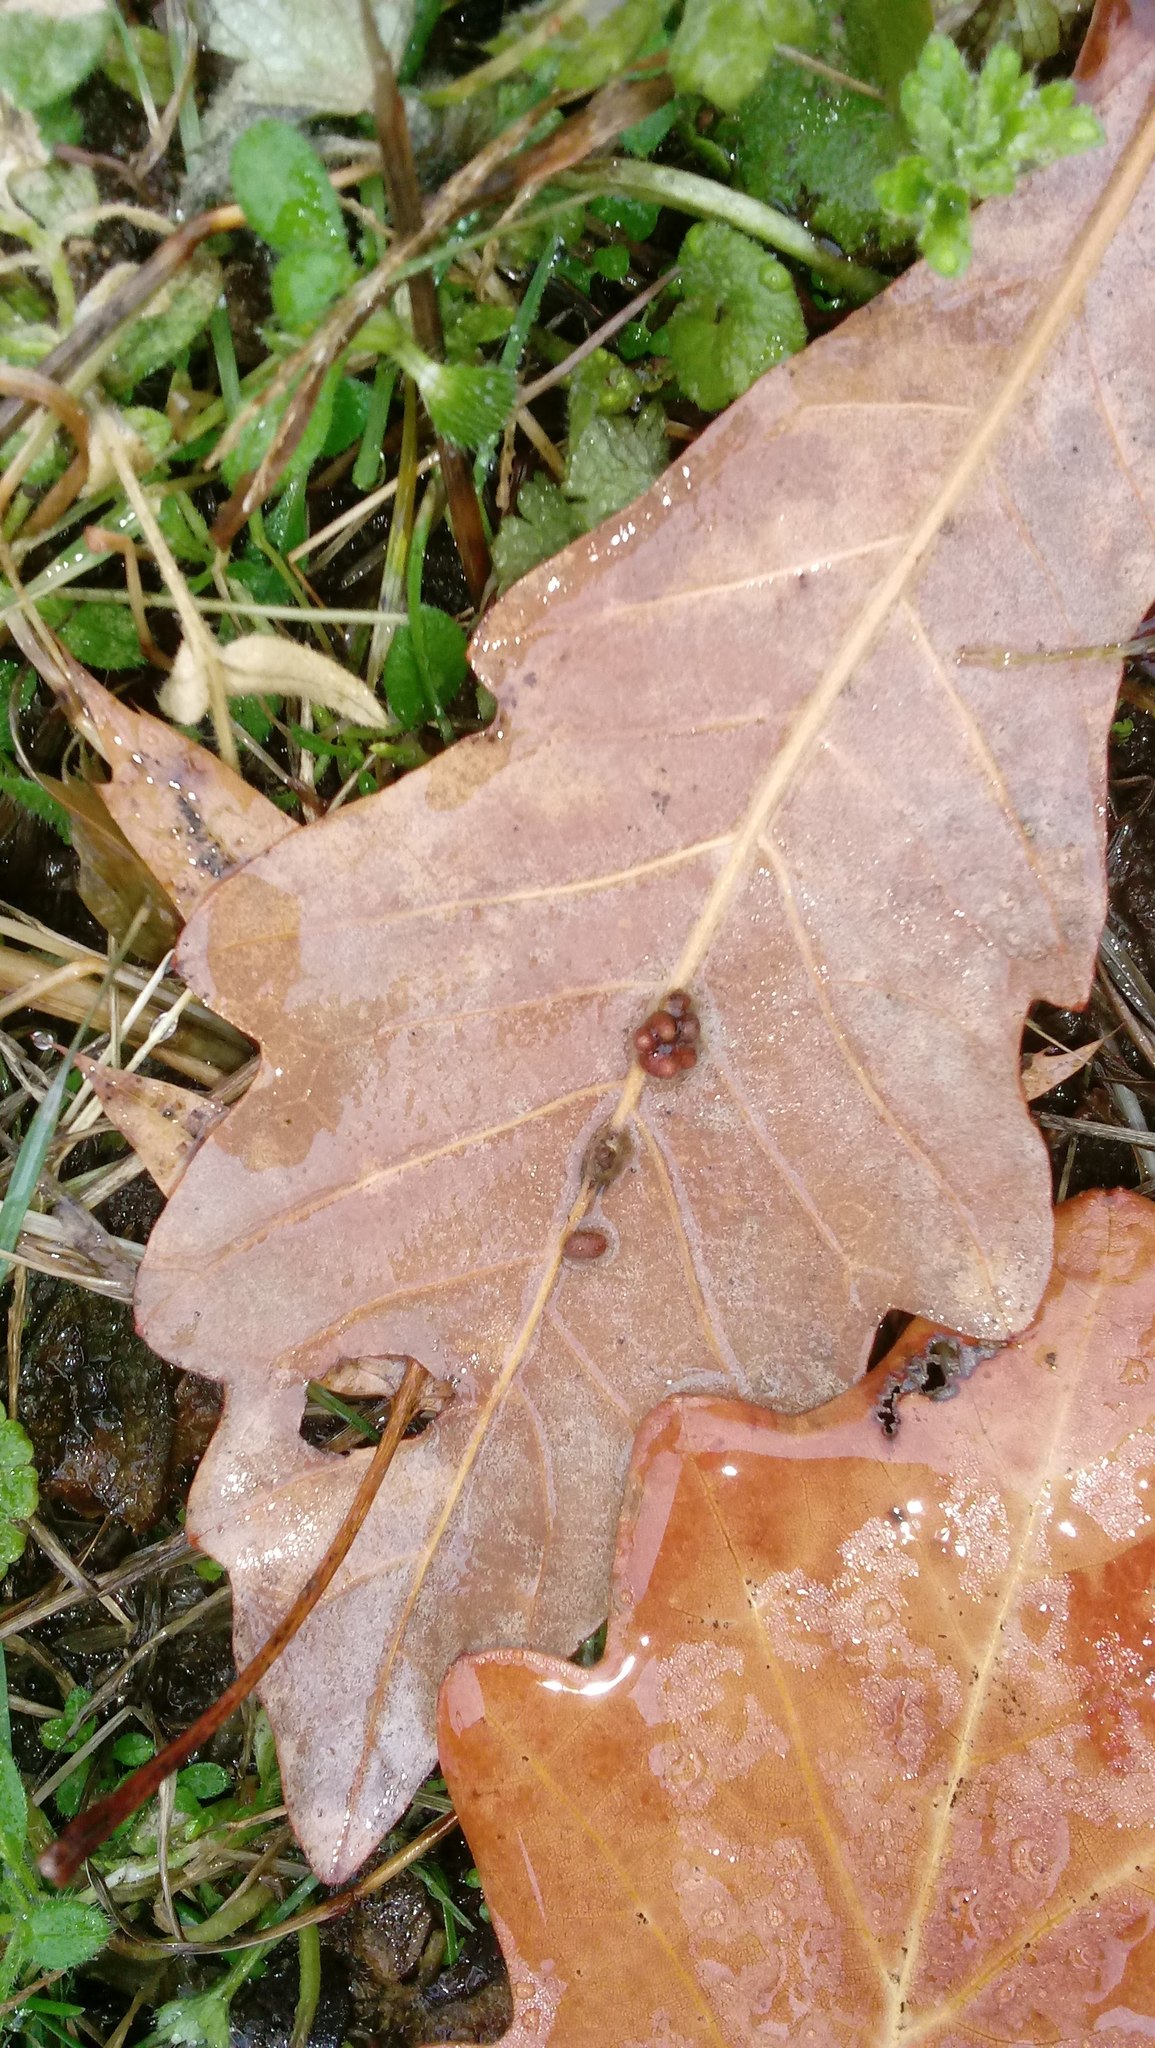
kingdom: Animalia
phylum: Arthropoda
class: Insecta
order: Hymenoptera
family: Cynipidae
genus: Andricus
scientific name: Andricus Druon ignotum
